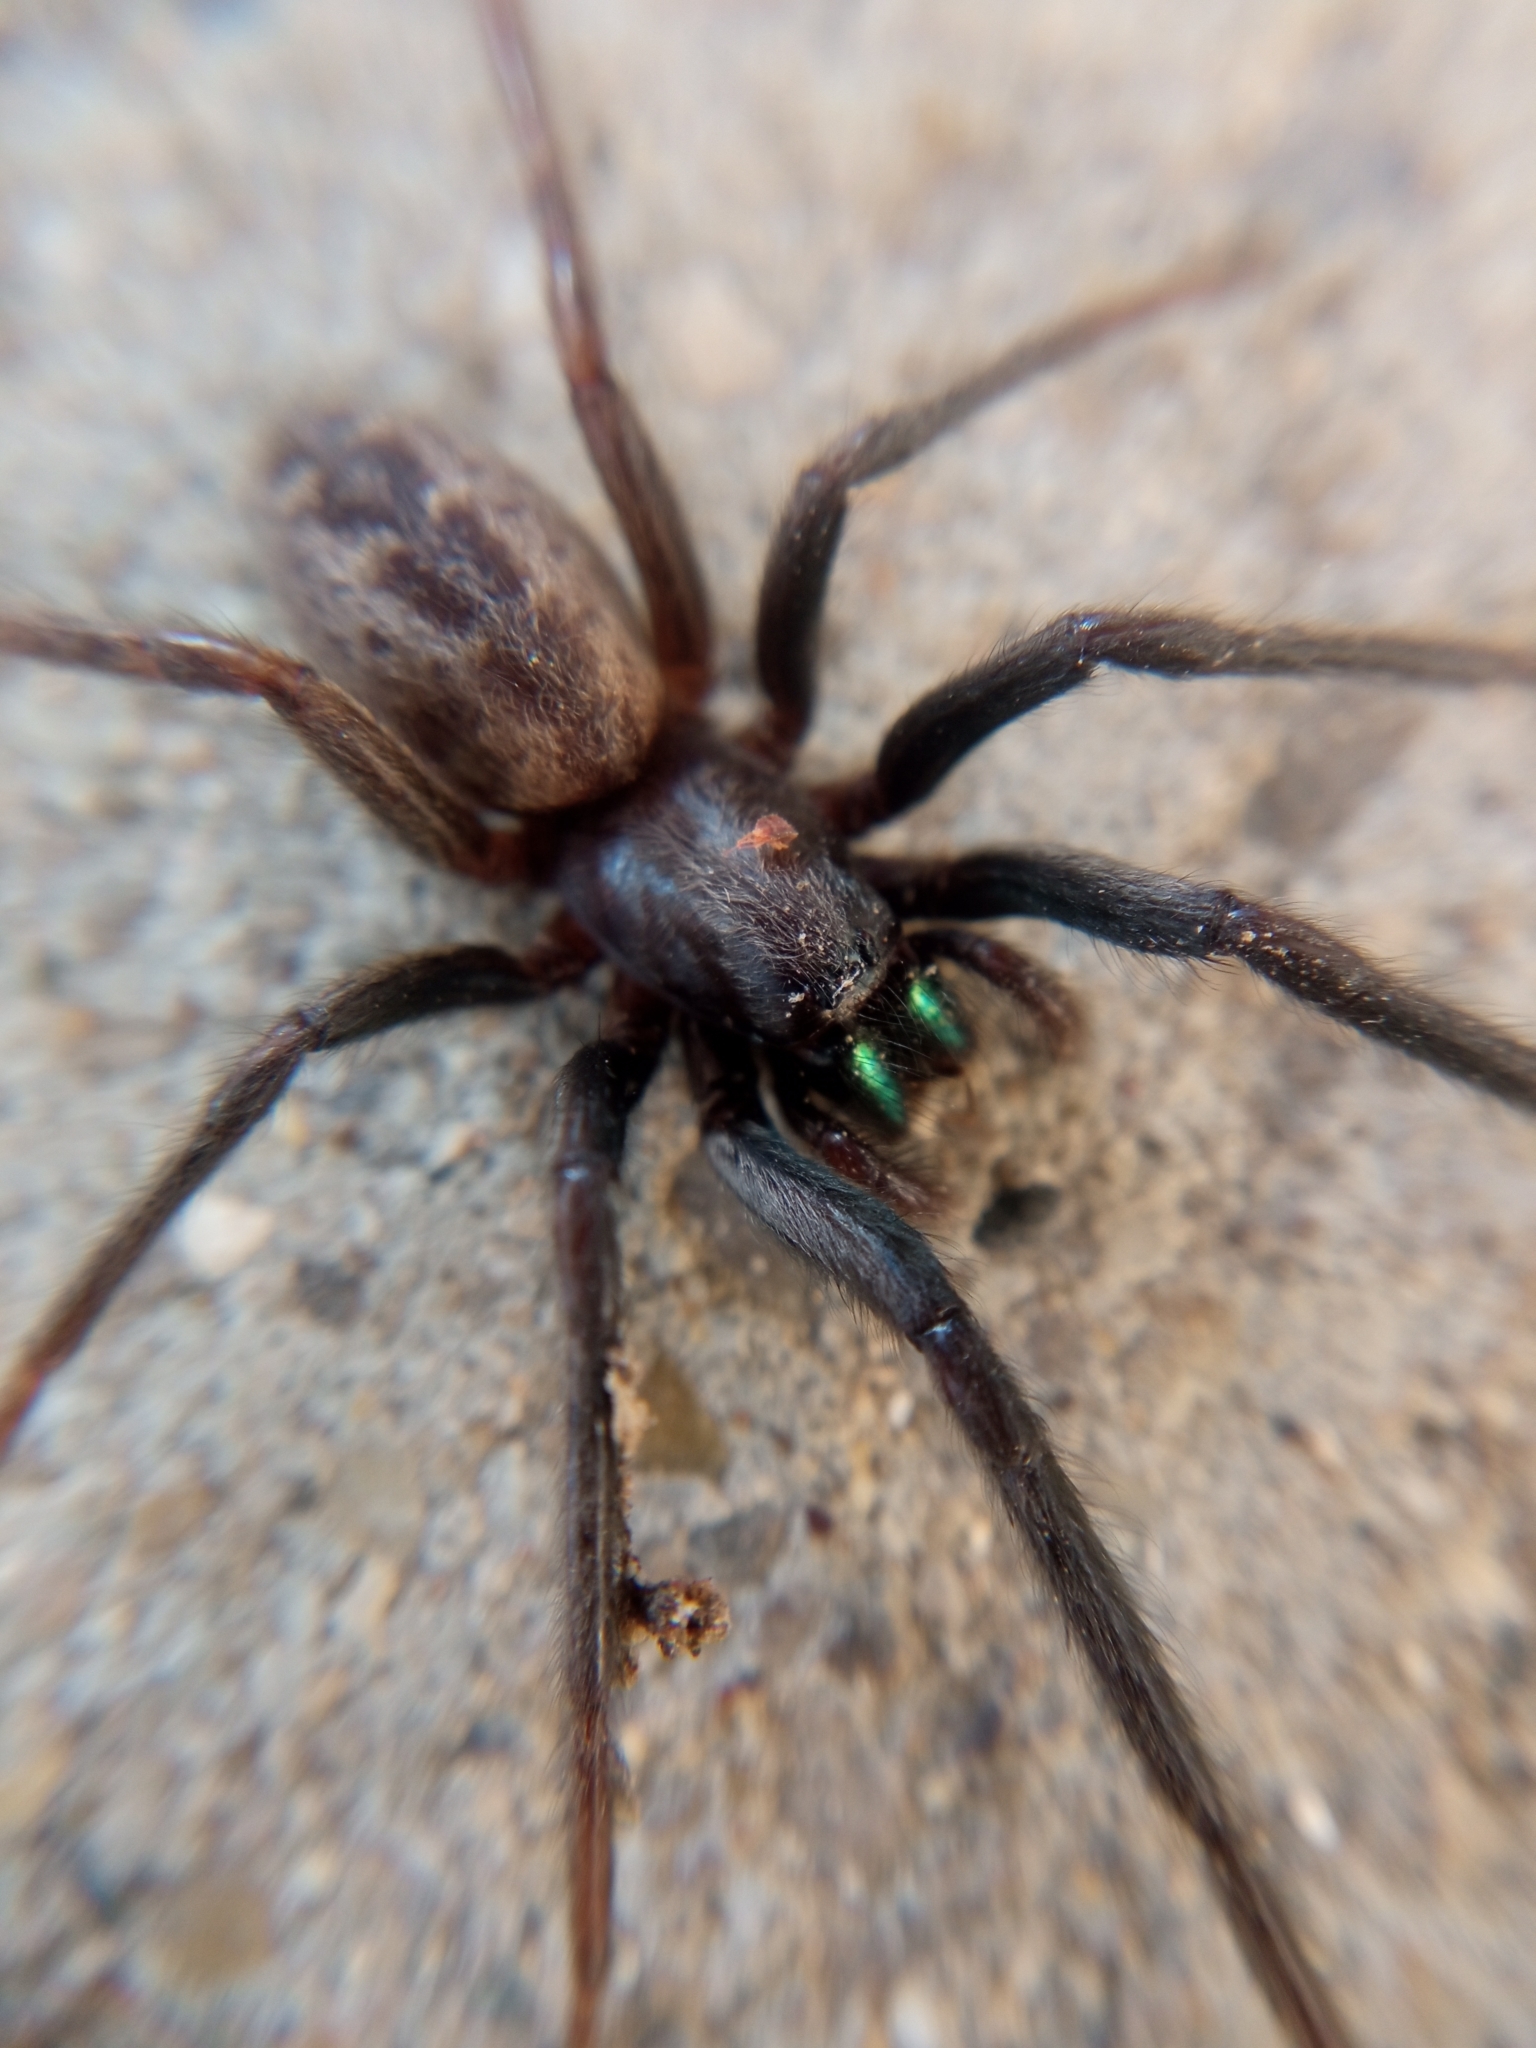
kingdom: Animalia
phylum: Arthropoda
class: Arachnida
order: Araneae
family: Segestriidae
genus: Segestria
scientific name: Segestria florentina
